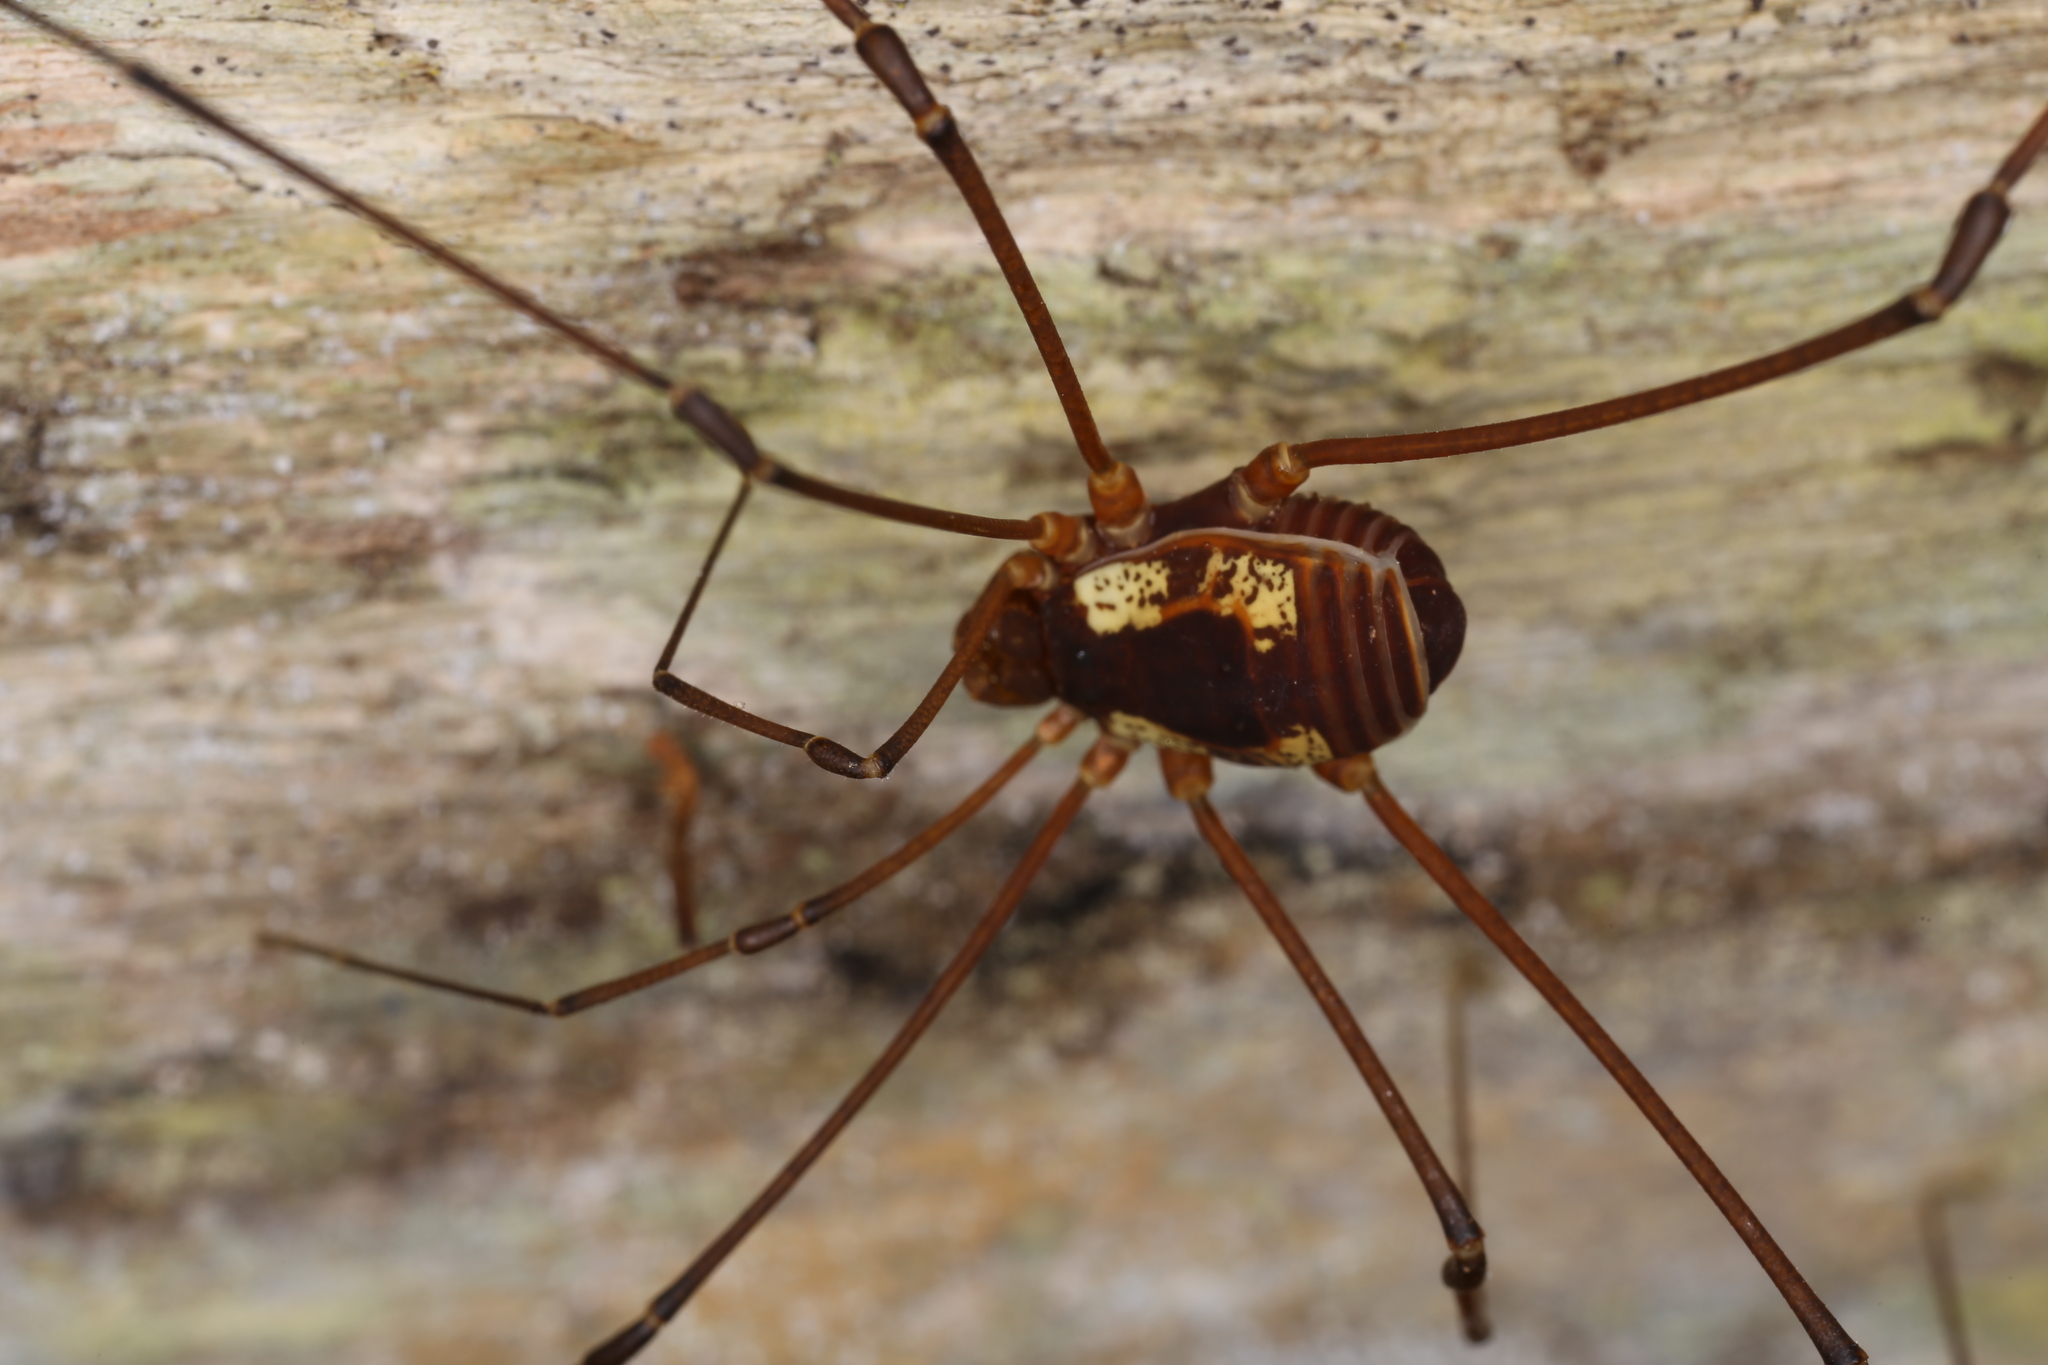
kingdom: Animalia
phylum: Arthropoda
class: Arachnida
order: Opiliones
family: Cosmetidae
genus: Poecilaemula
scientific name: Poecilaemula signata
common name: Harvestmen
